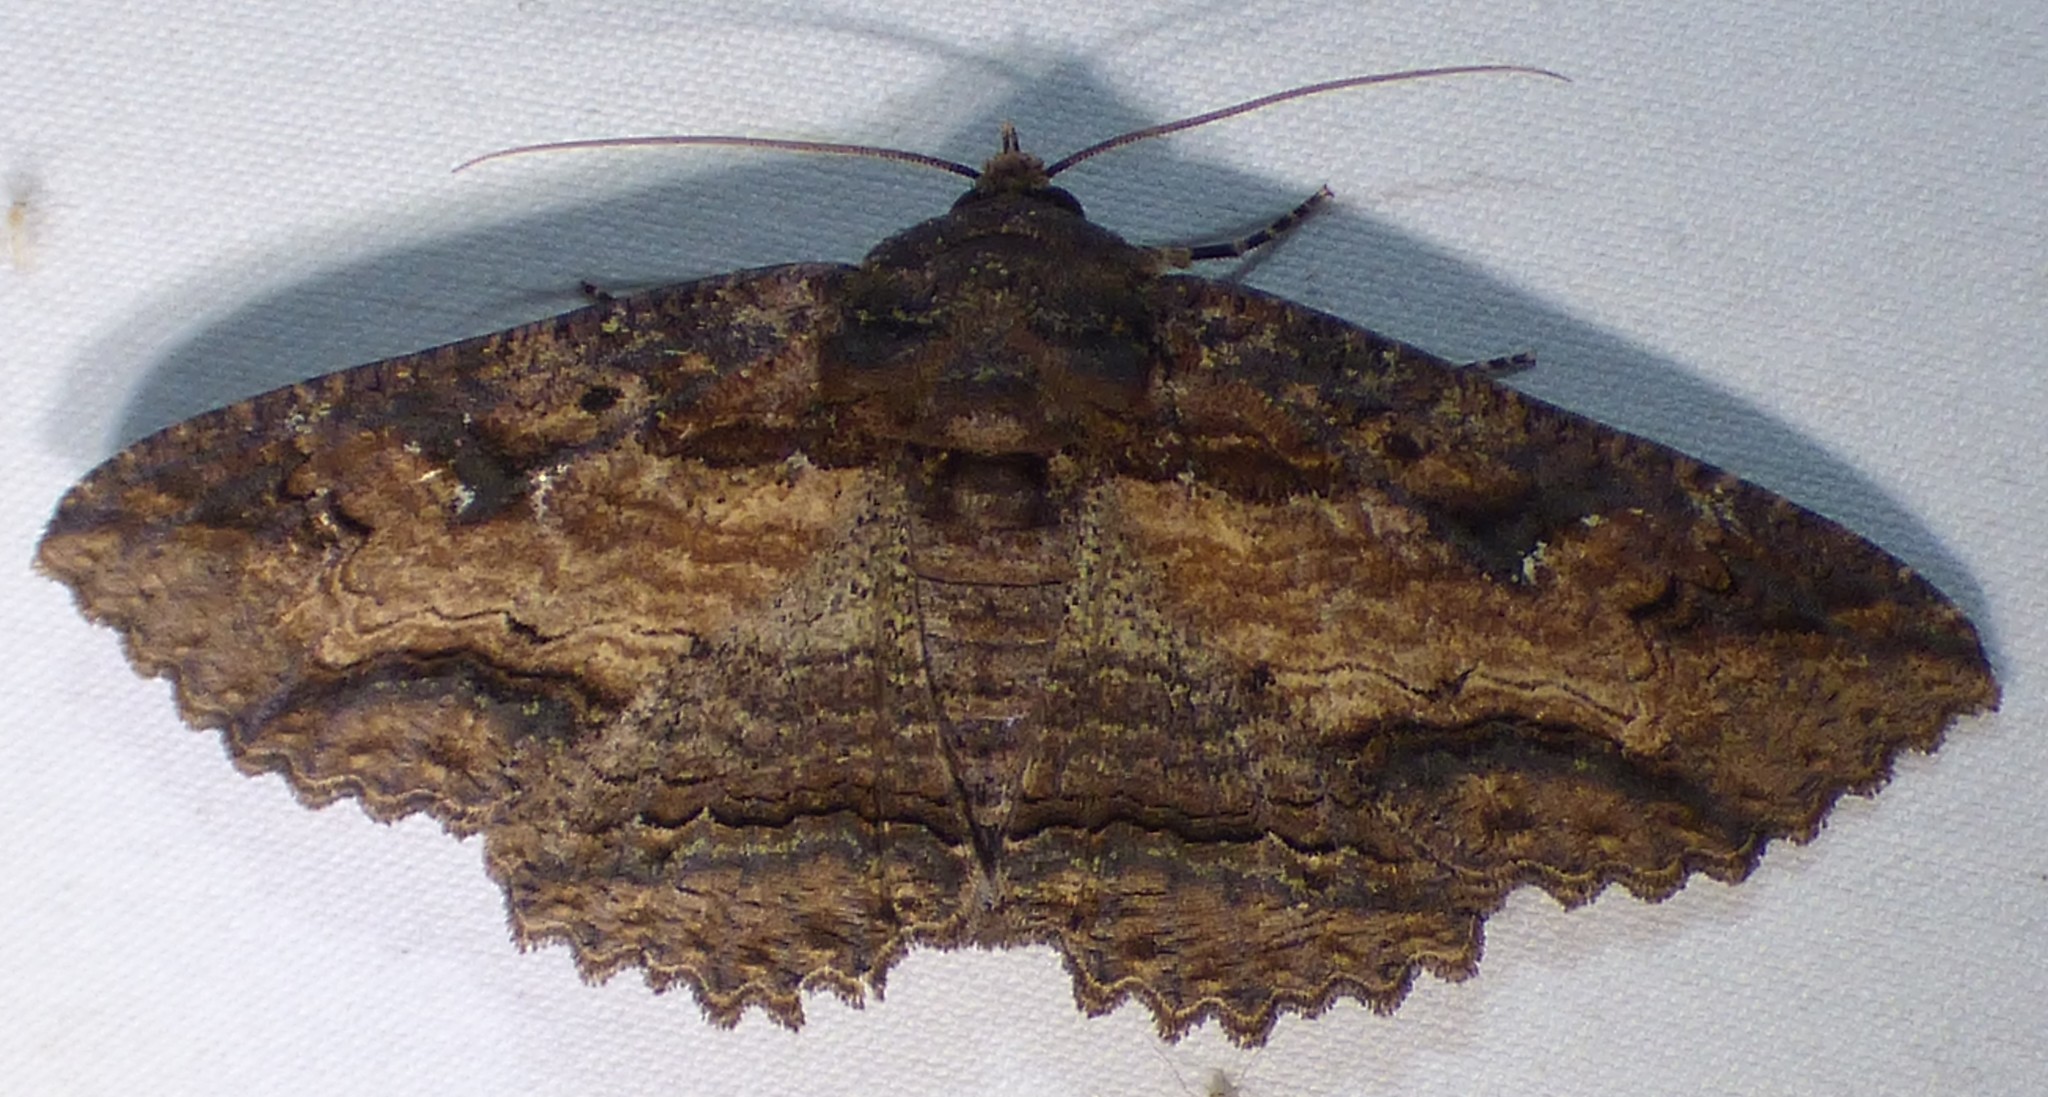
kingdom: Animalia
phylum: Arthropoda
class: Insecta
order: Lepidoptera
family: Erebidae
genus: Zale
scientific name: Zale lunata
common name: Lunate zale moth
